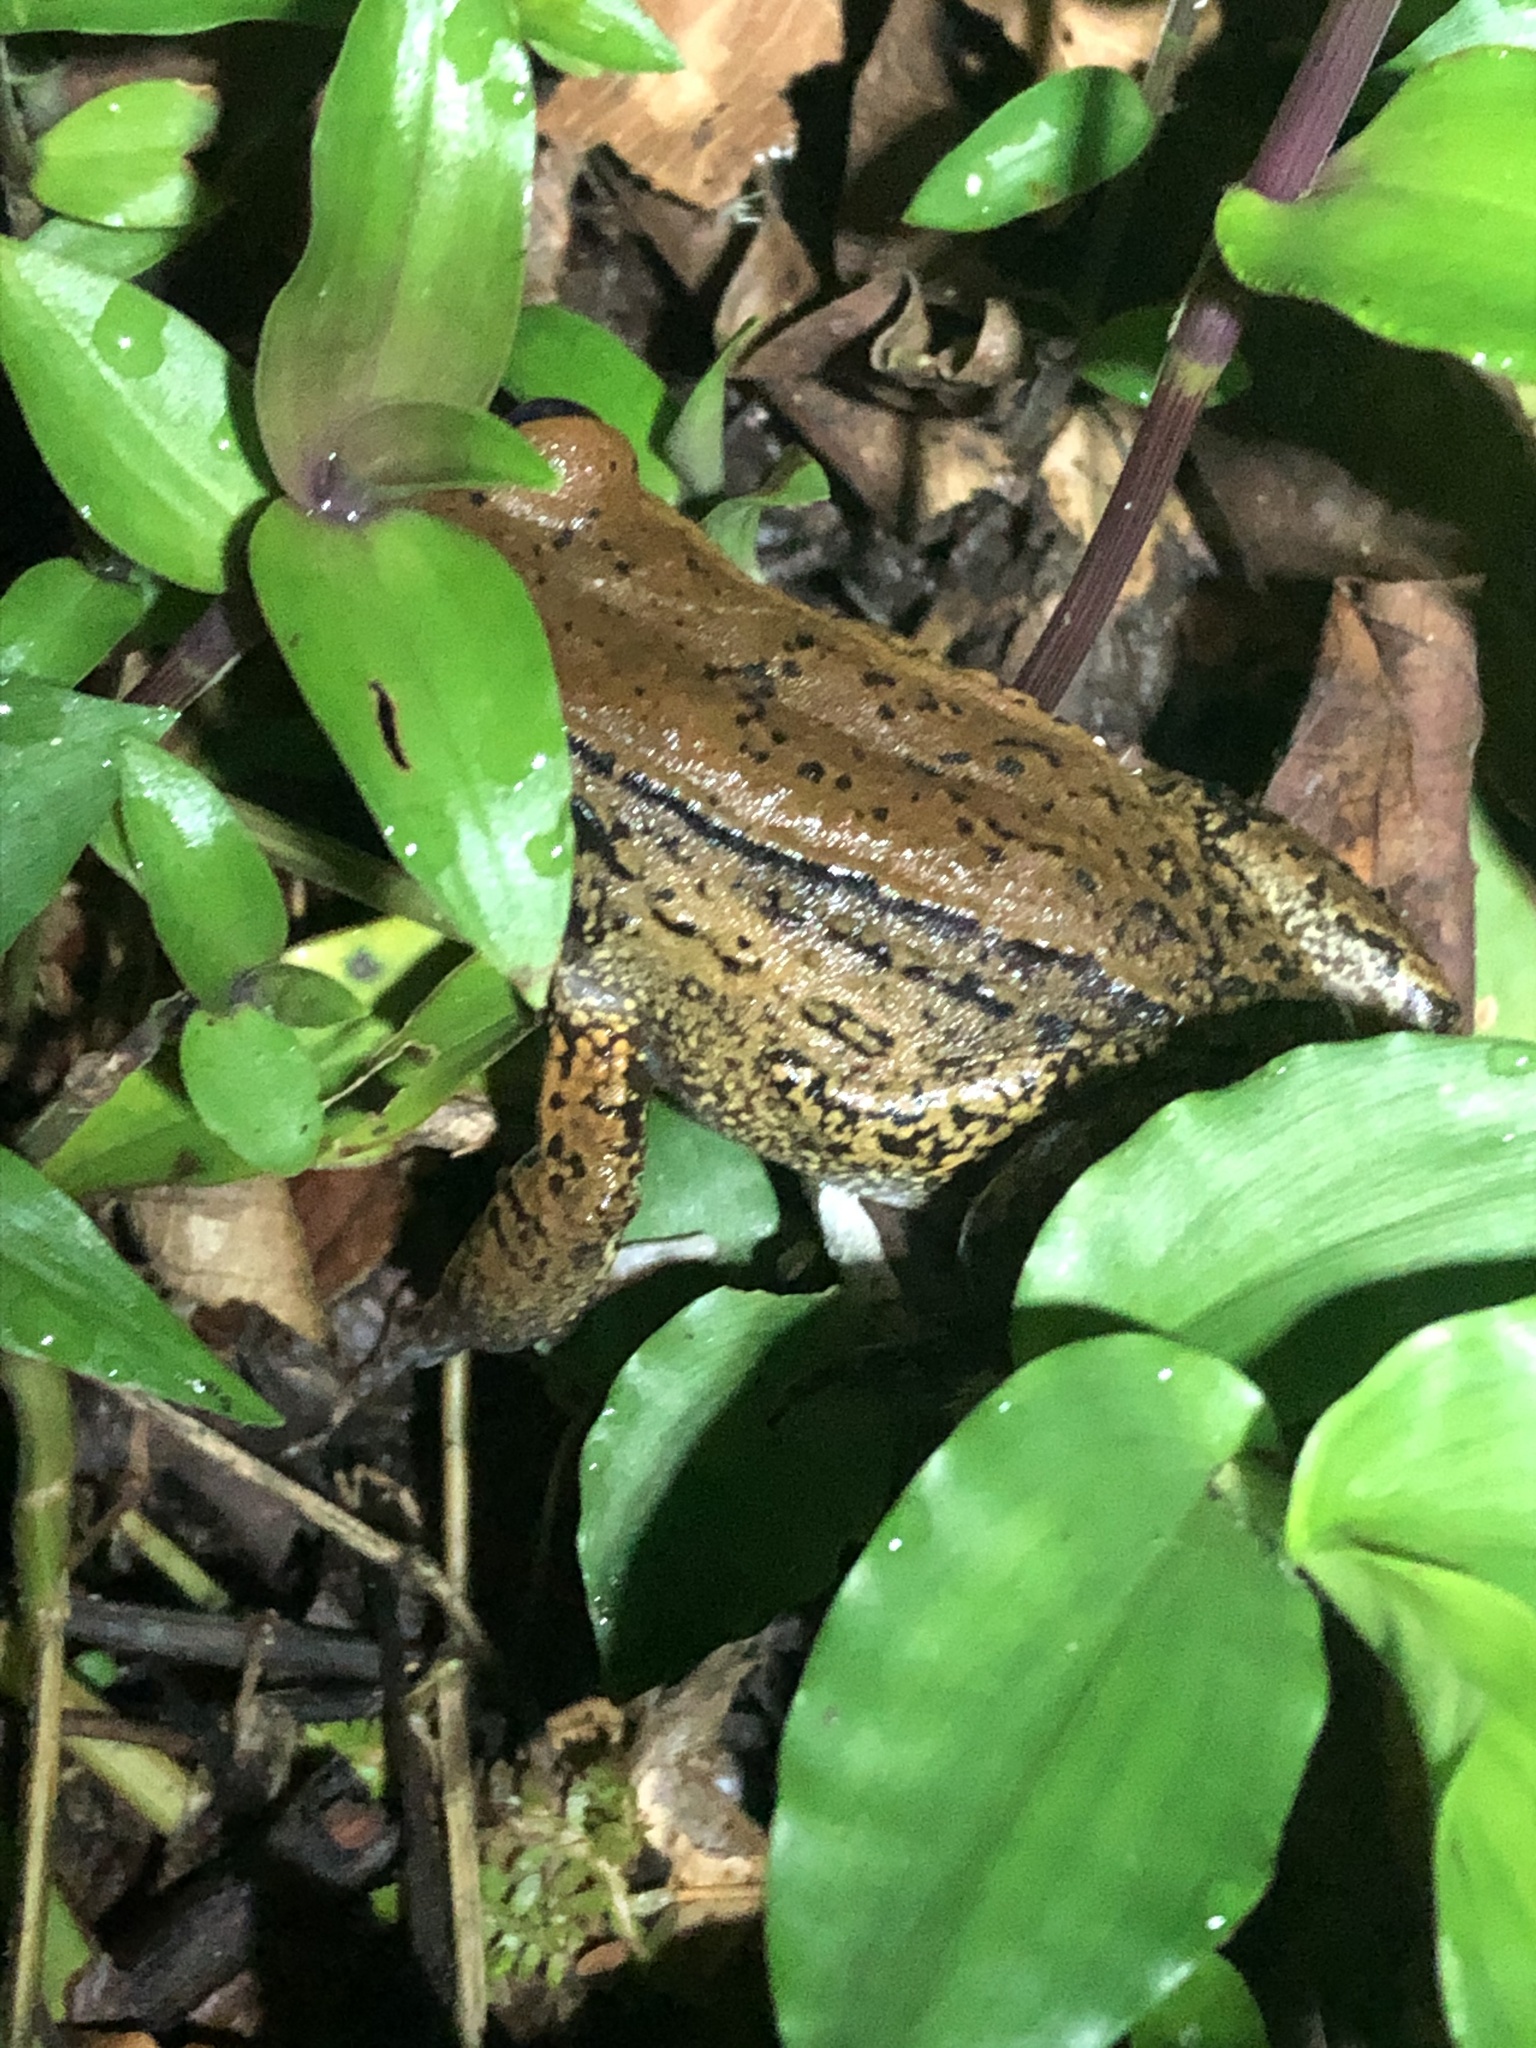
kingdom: Animalia
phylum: Chordata
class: Amphibia
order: Anura
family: Leptodactylidae
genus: Leptodactylus
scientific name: Leptodactylus rhodonotus
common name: Peru white-lipped frog
